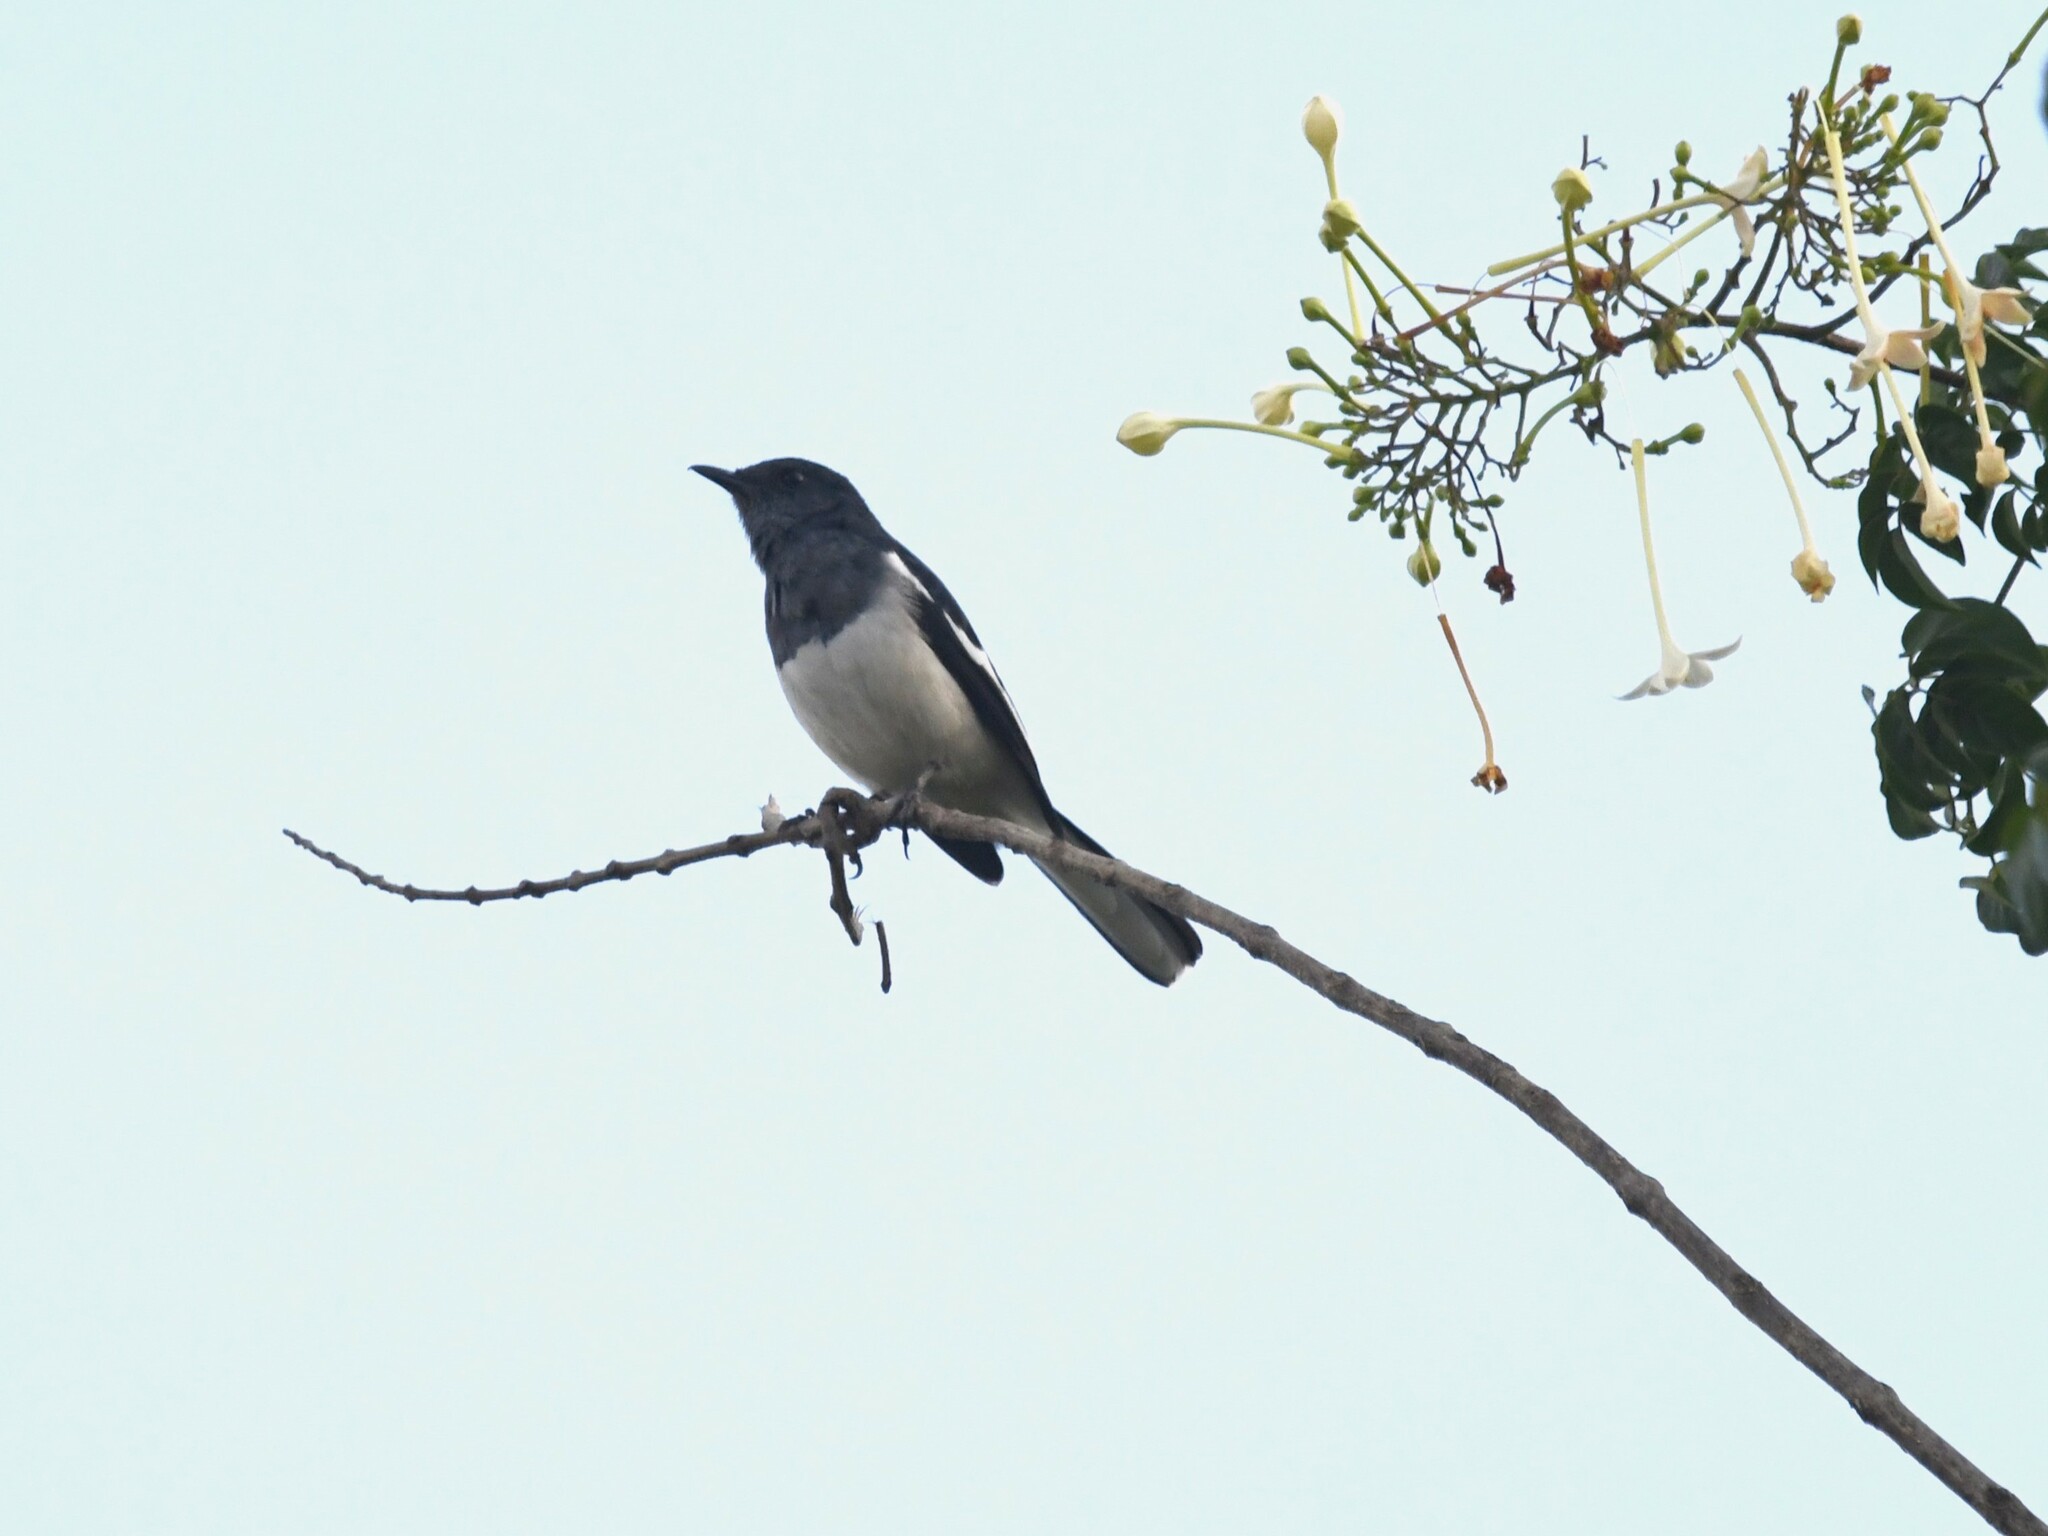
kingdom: Animalia
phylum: Chordata
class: Aves
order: Passeriformes
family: Muscicapidae
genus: Copsychus
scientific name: Copsychus saularis
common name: Oriental magpie-robin
